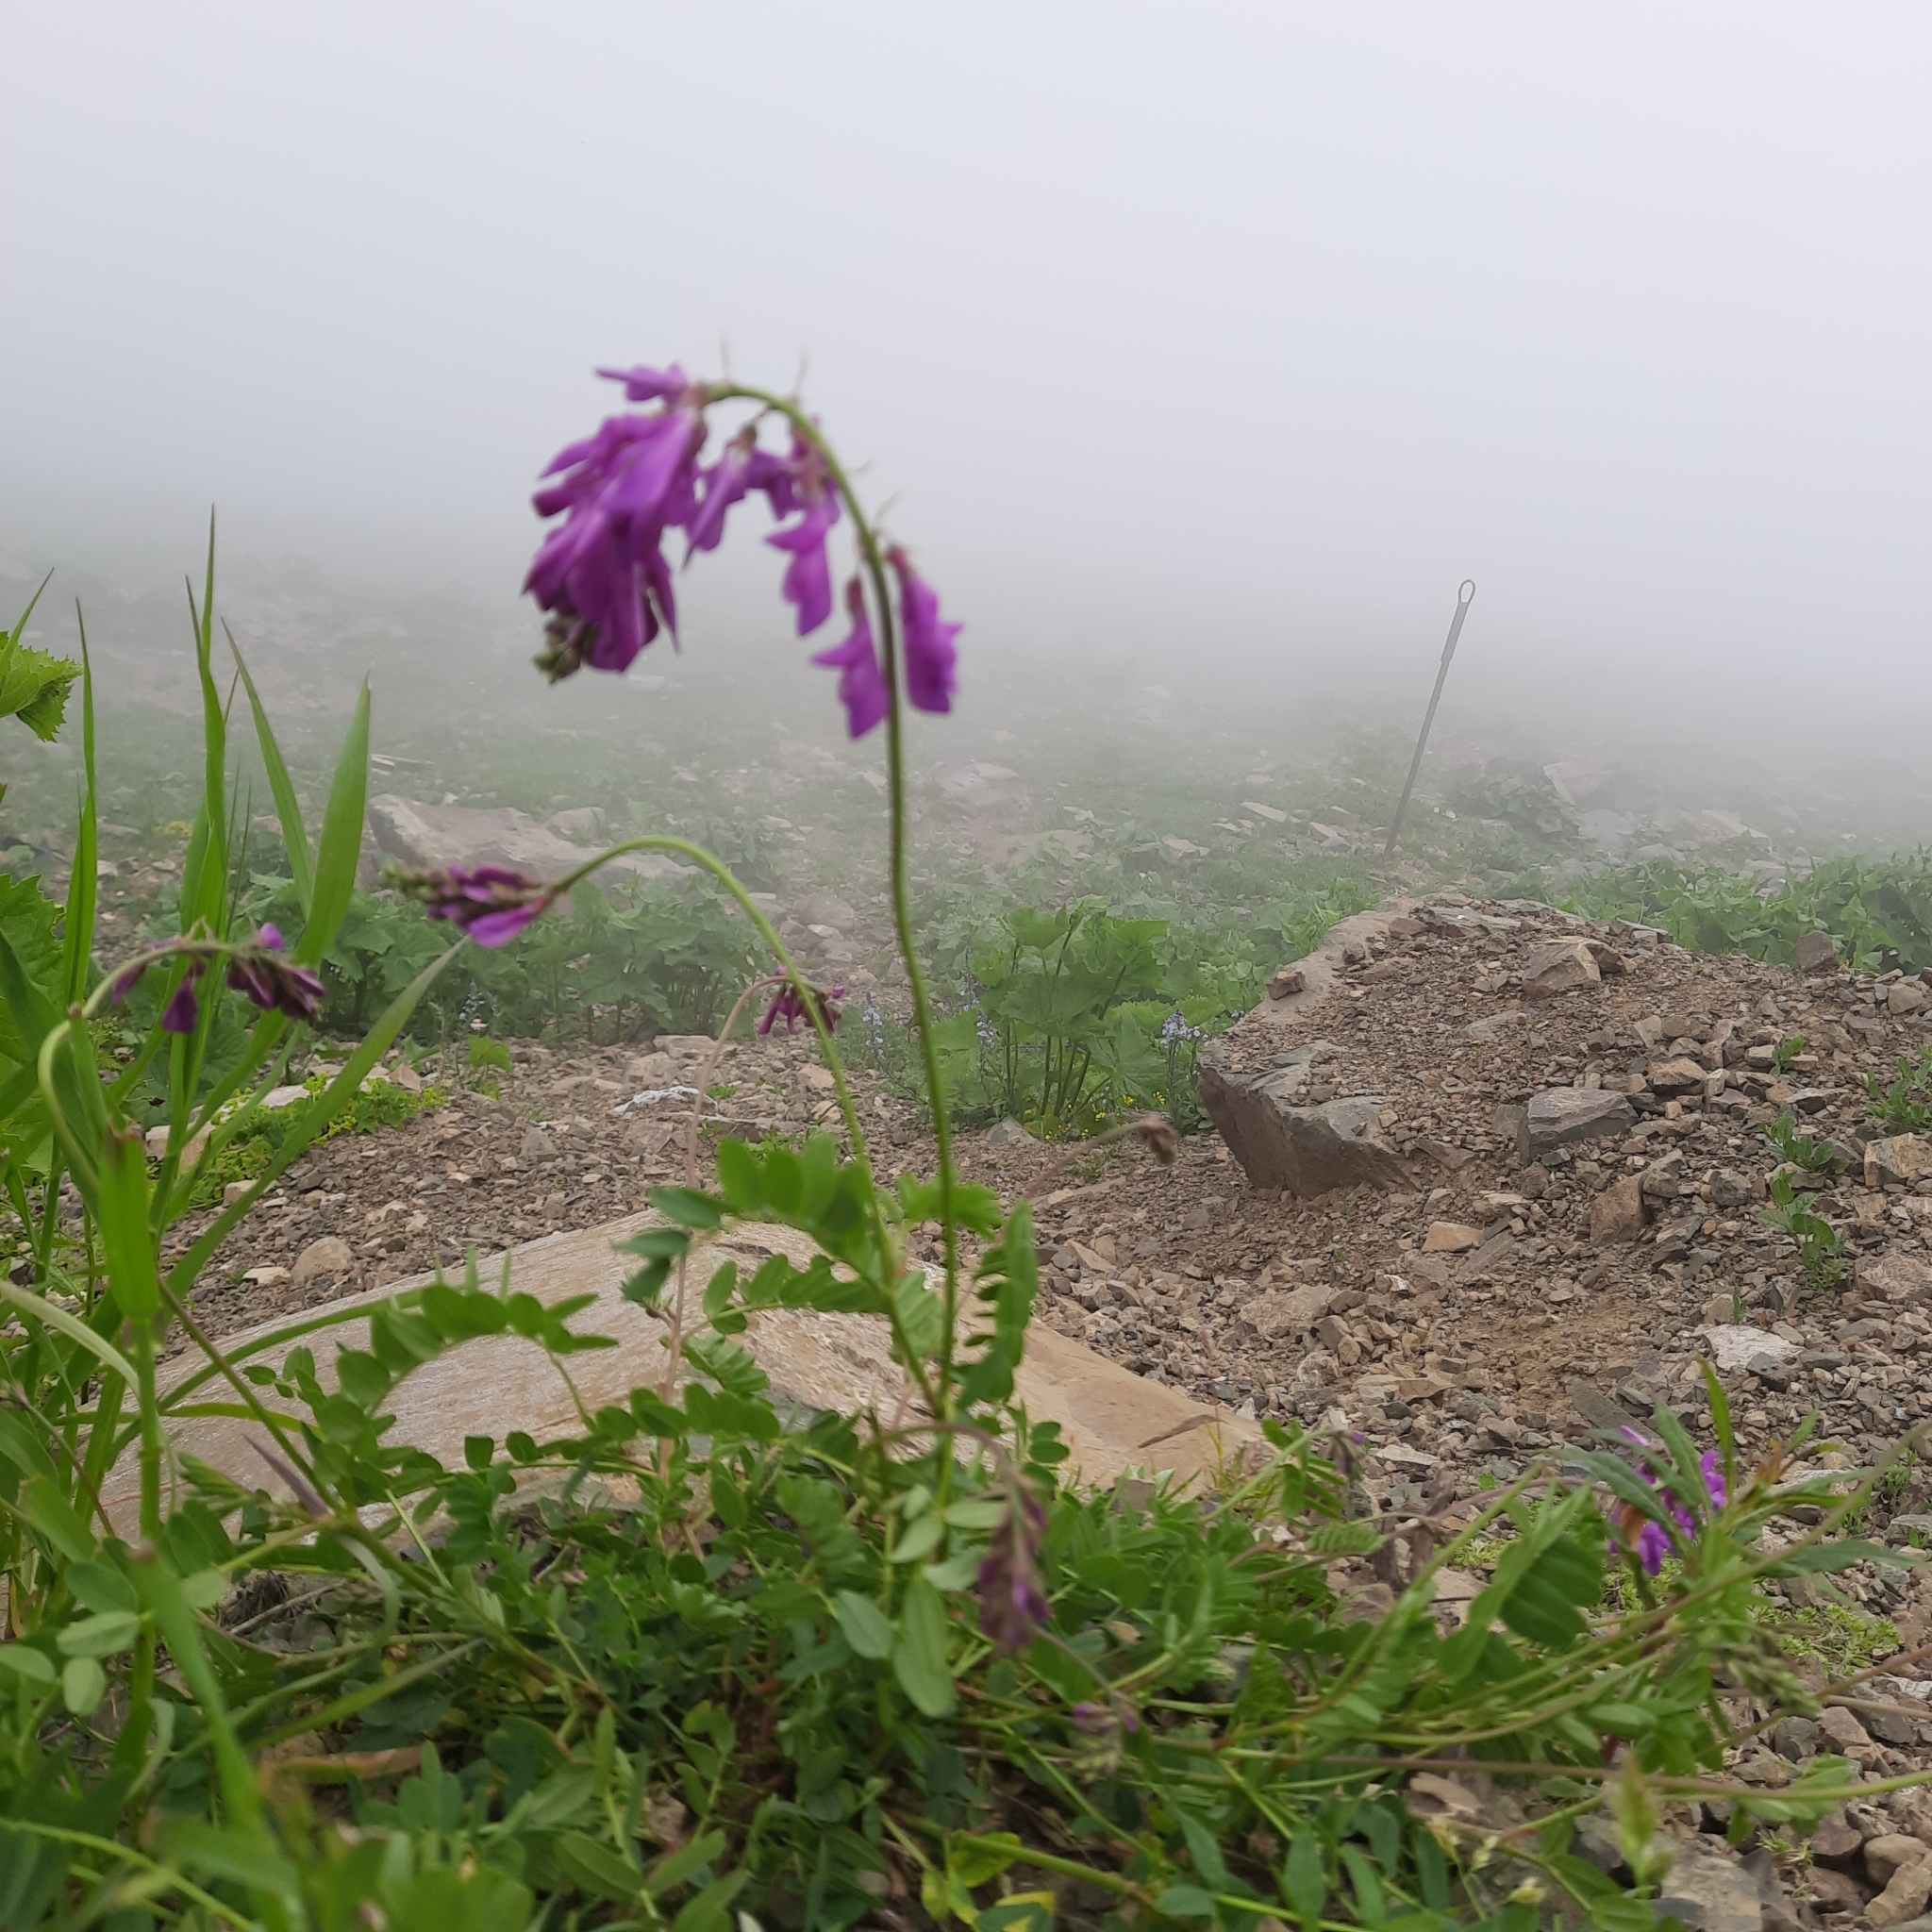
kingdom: Plantae
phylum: Tracheophyta
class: Magnoliopsida
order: Fabales
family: Fabaceae
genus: Hedysarum
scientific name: Hedysarum caucasicum
